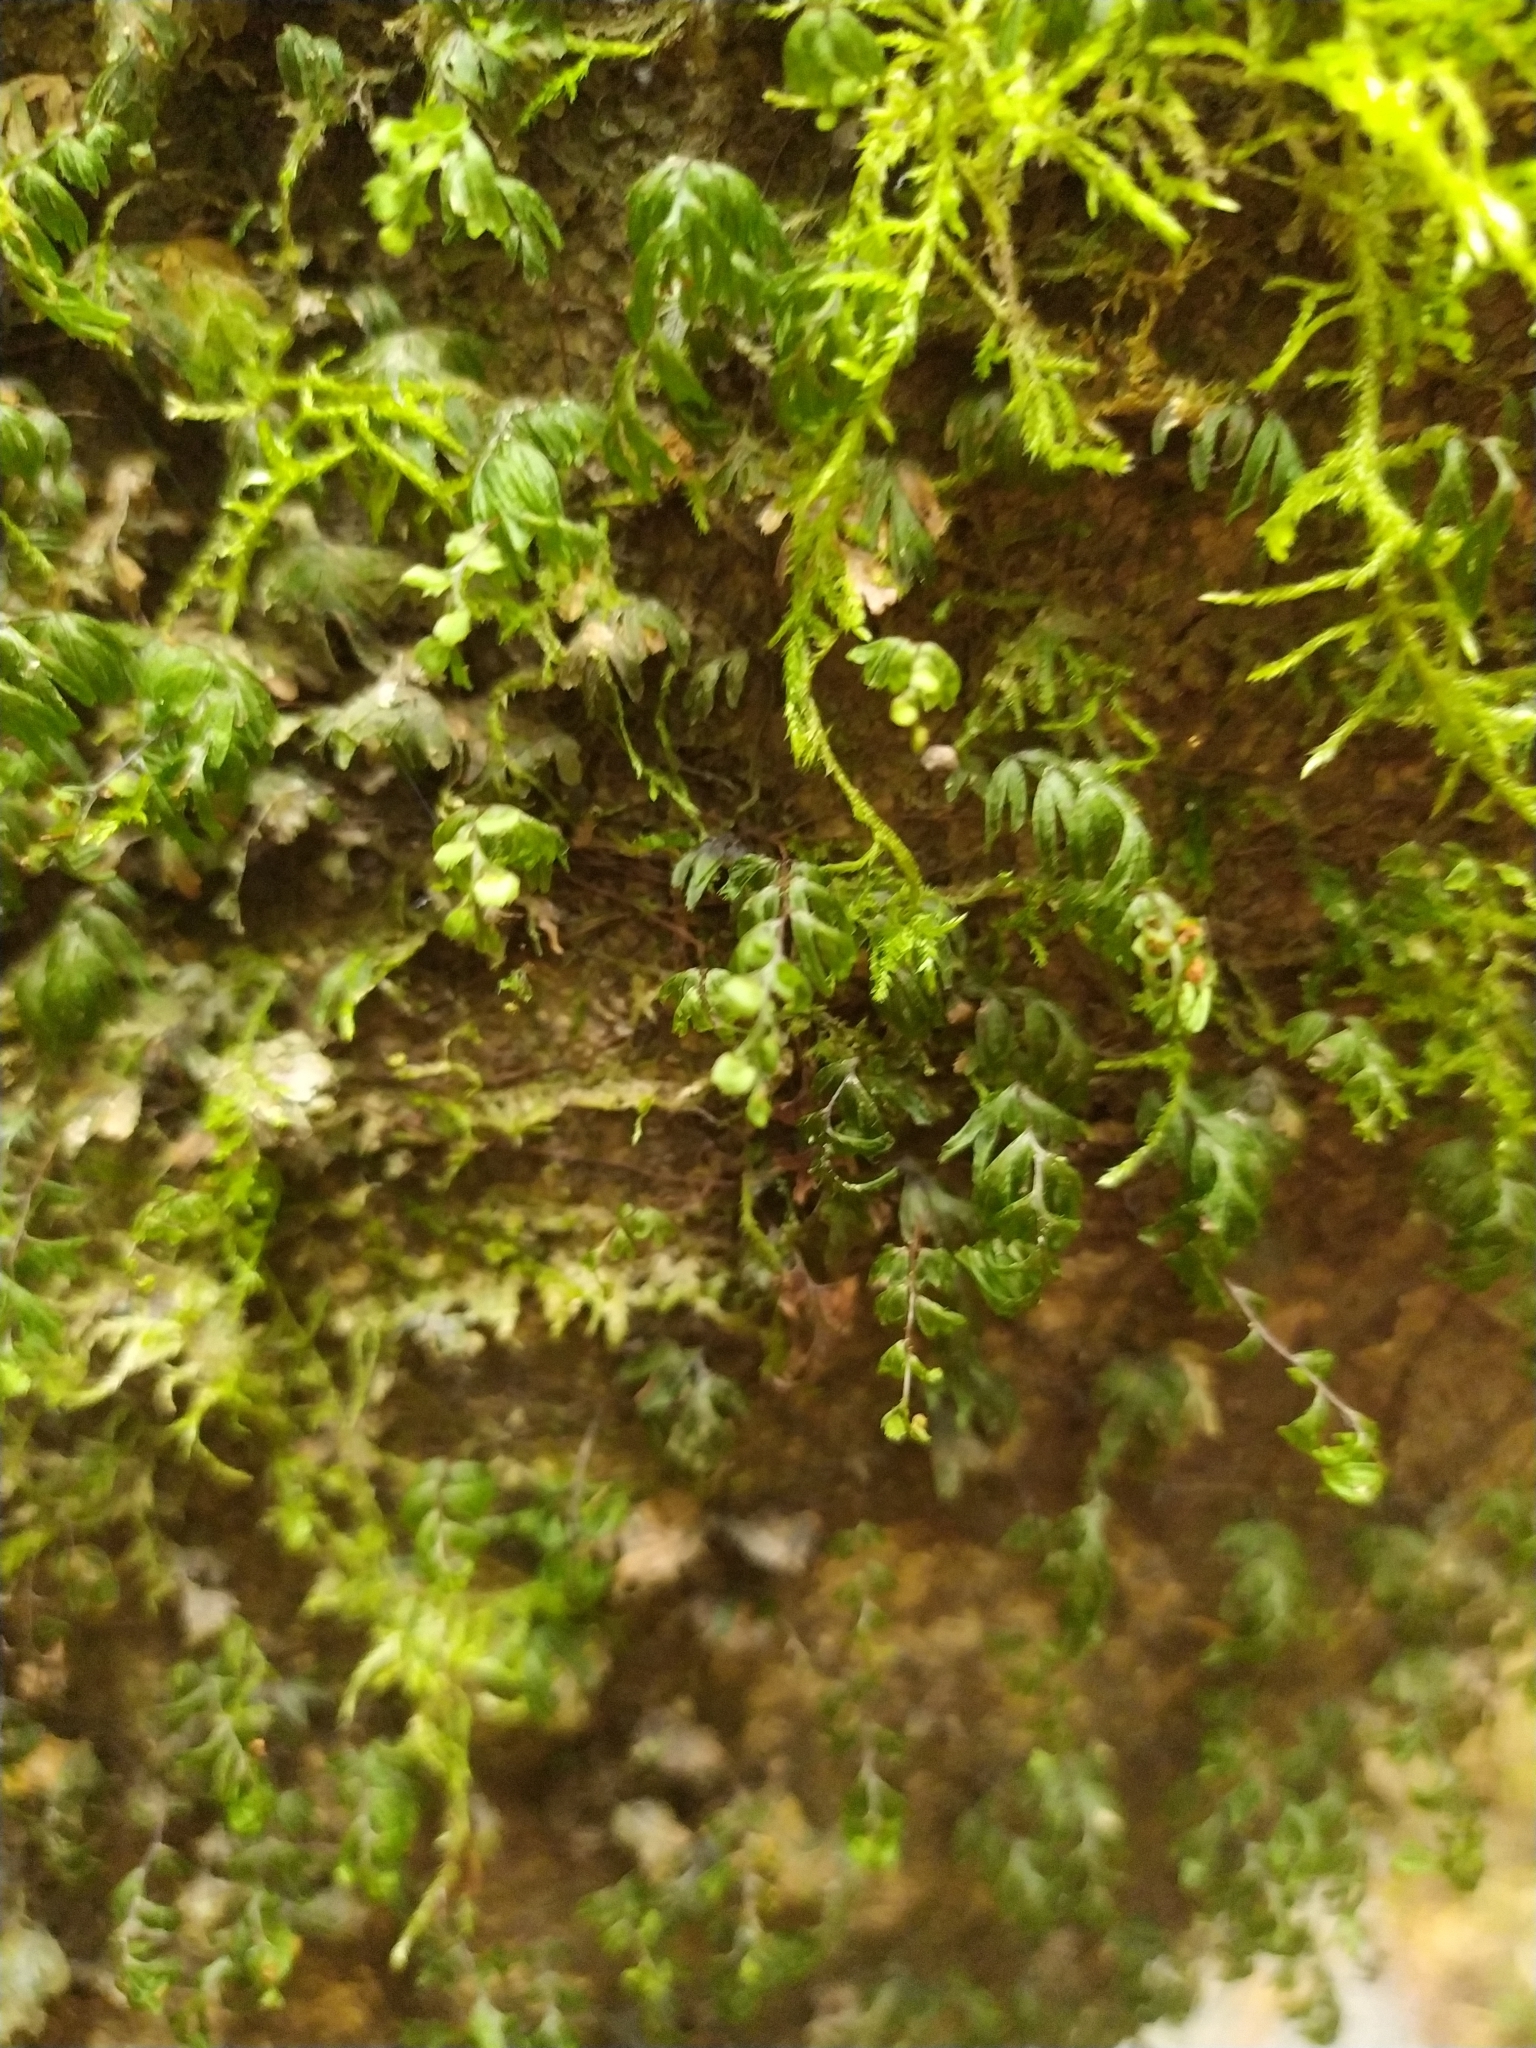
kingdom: Plantae
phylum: Tracheophyta
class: Polypodiopsida
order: Hymenophyllales
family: Hymenophyllaceae
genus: Hymenophyllum
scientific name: Hymenophyllum revolutum
